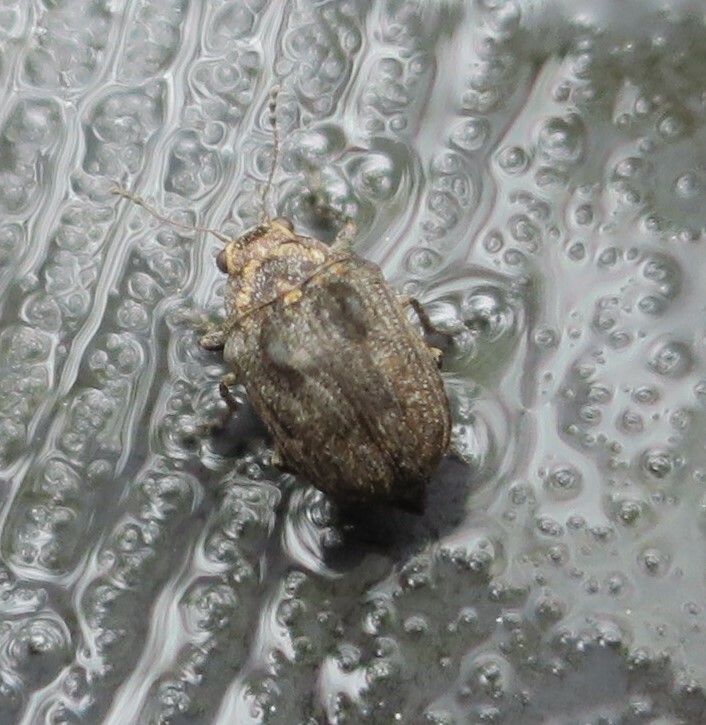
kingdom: Animalia
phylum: Arthropoda
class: Insecta
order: Coleoptera
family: Anthribidae
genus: Araecerus
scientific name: Araecerus
